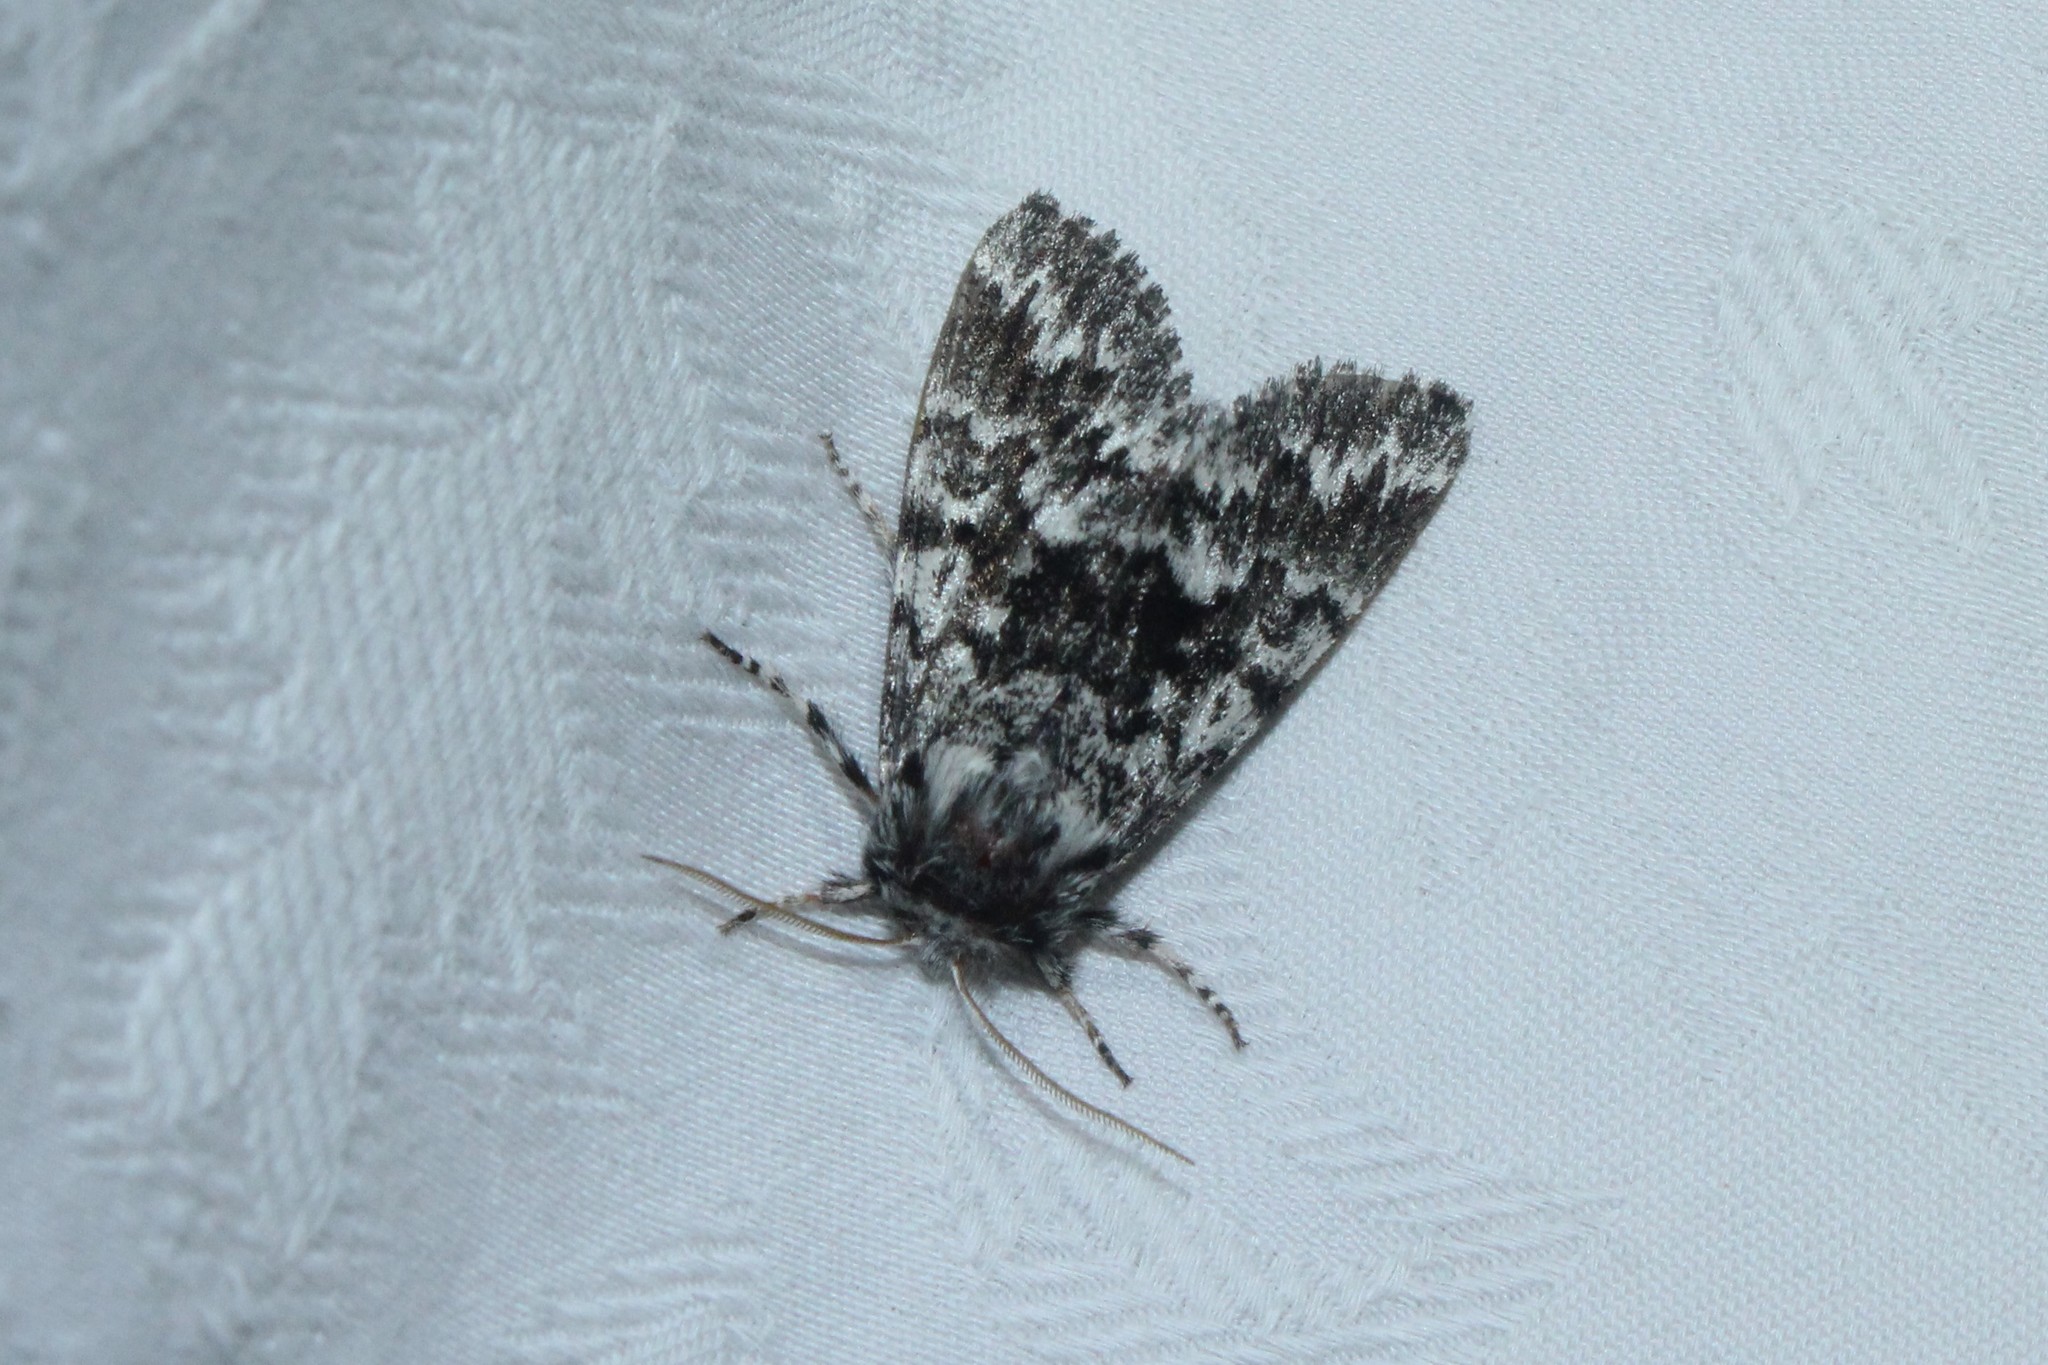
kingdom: Animalia
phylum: Arthropoda
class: Insecta
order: Lepidoptera
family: Noctuidae
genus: Panthea
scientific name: Panthea acronyctoides
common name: Black zigzag moth
